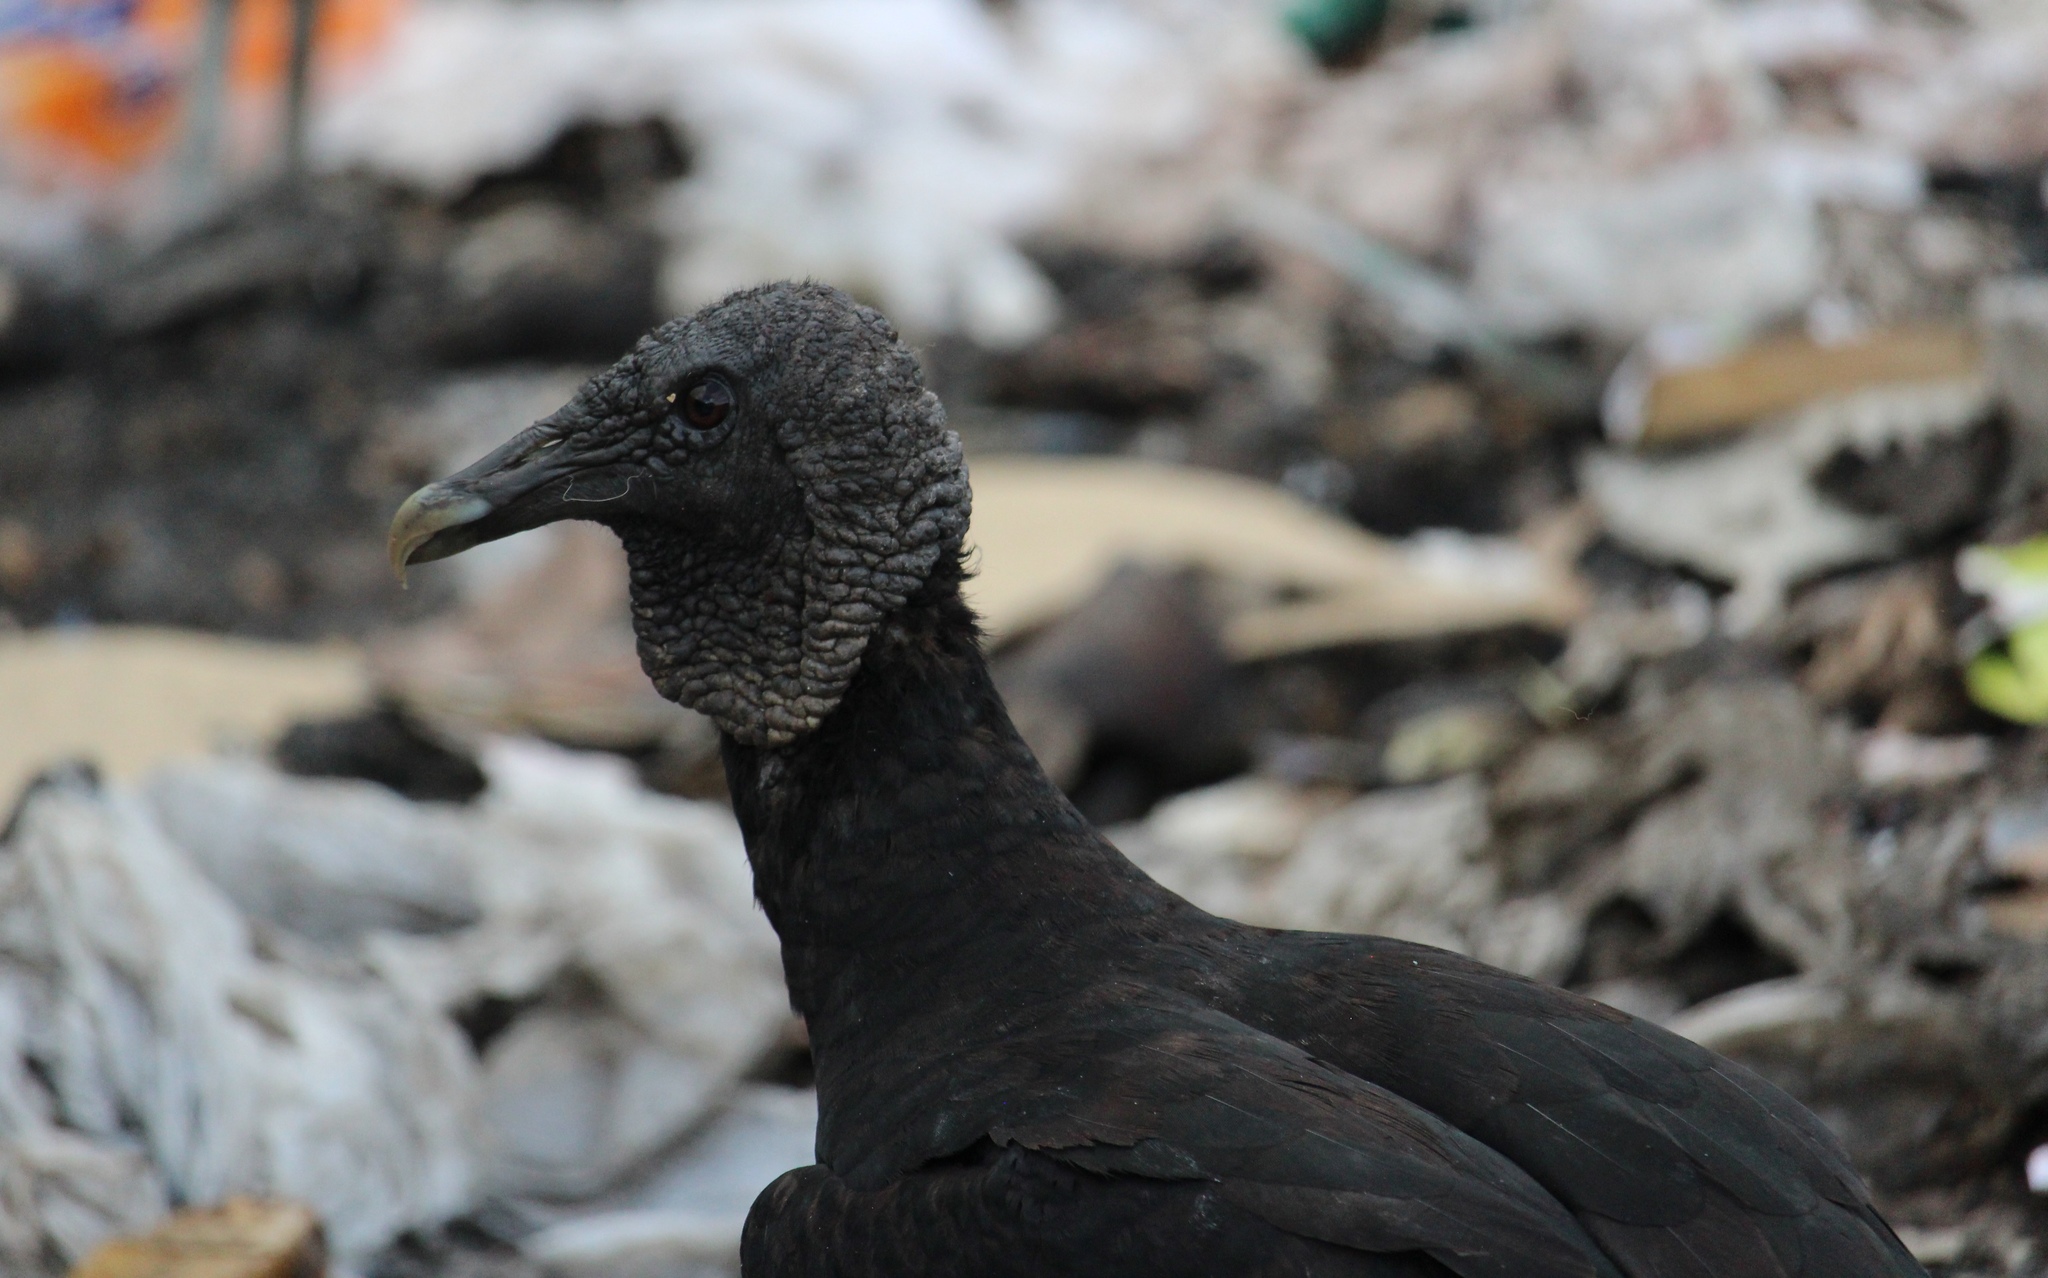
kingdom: Animalia
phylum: Chordata
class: Aves
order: Accipitriformes
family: Cathartidae
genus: Coragyps
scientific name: Coragyps atratus
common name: Black vulture
